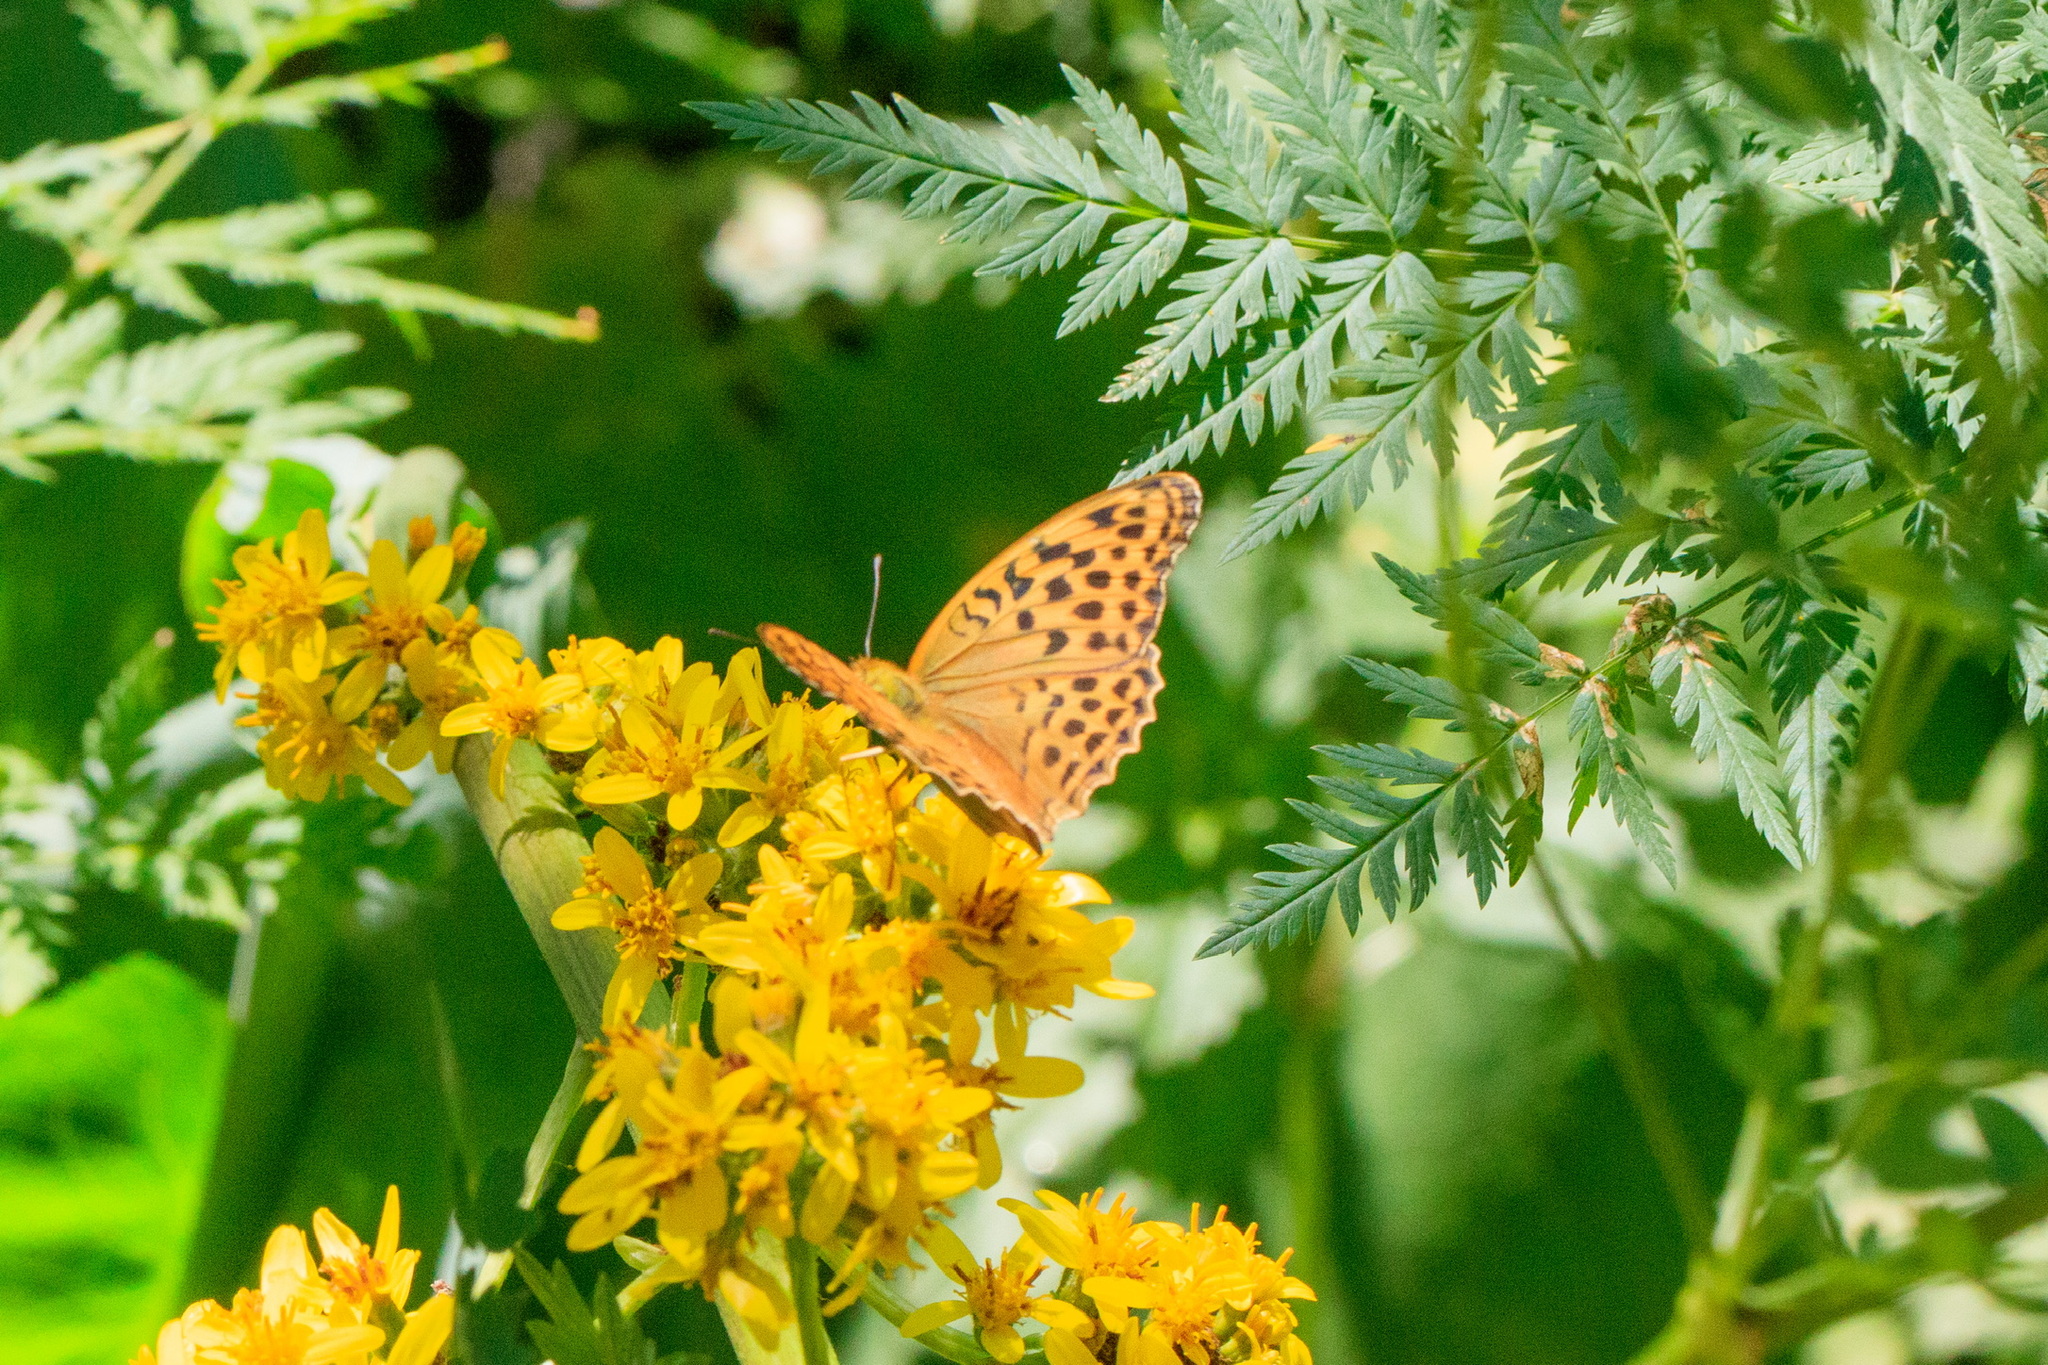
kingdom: Animalia
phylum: Arthropoda
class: Insecta
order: Lepidoptera
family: Nymphalidae
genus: Argynnis
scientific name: Argynnis paphia
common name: Silver-washed fritillary
